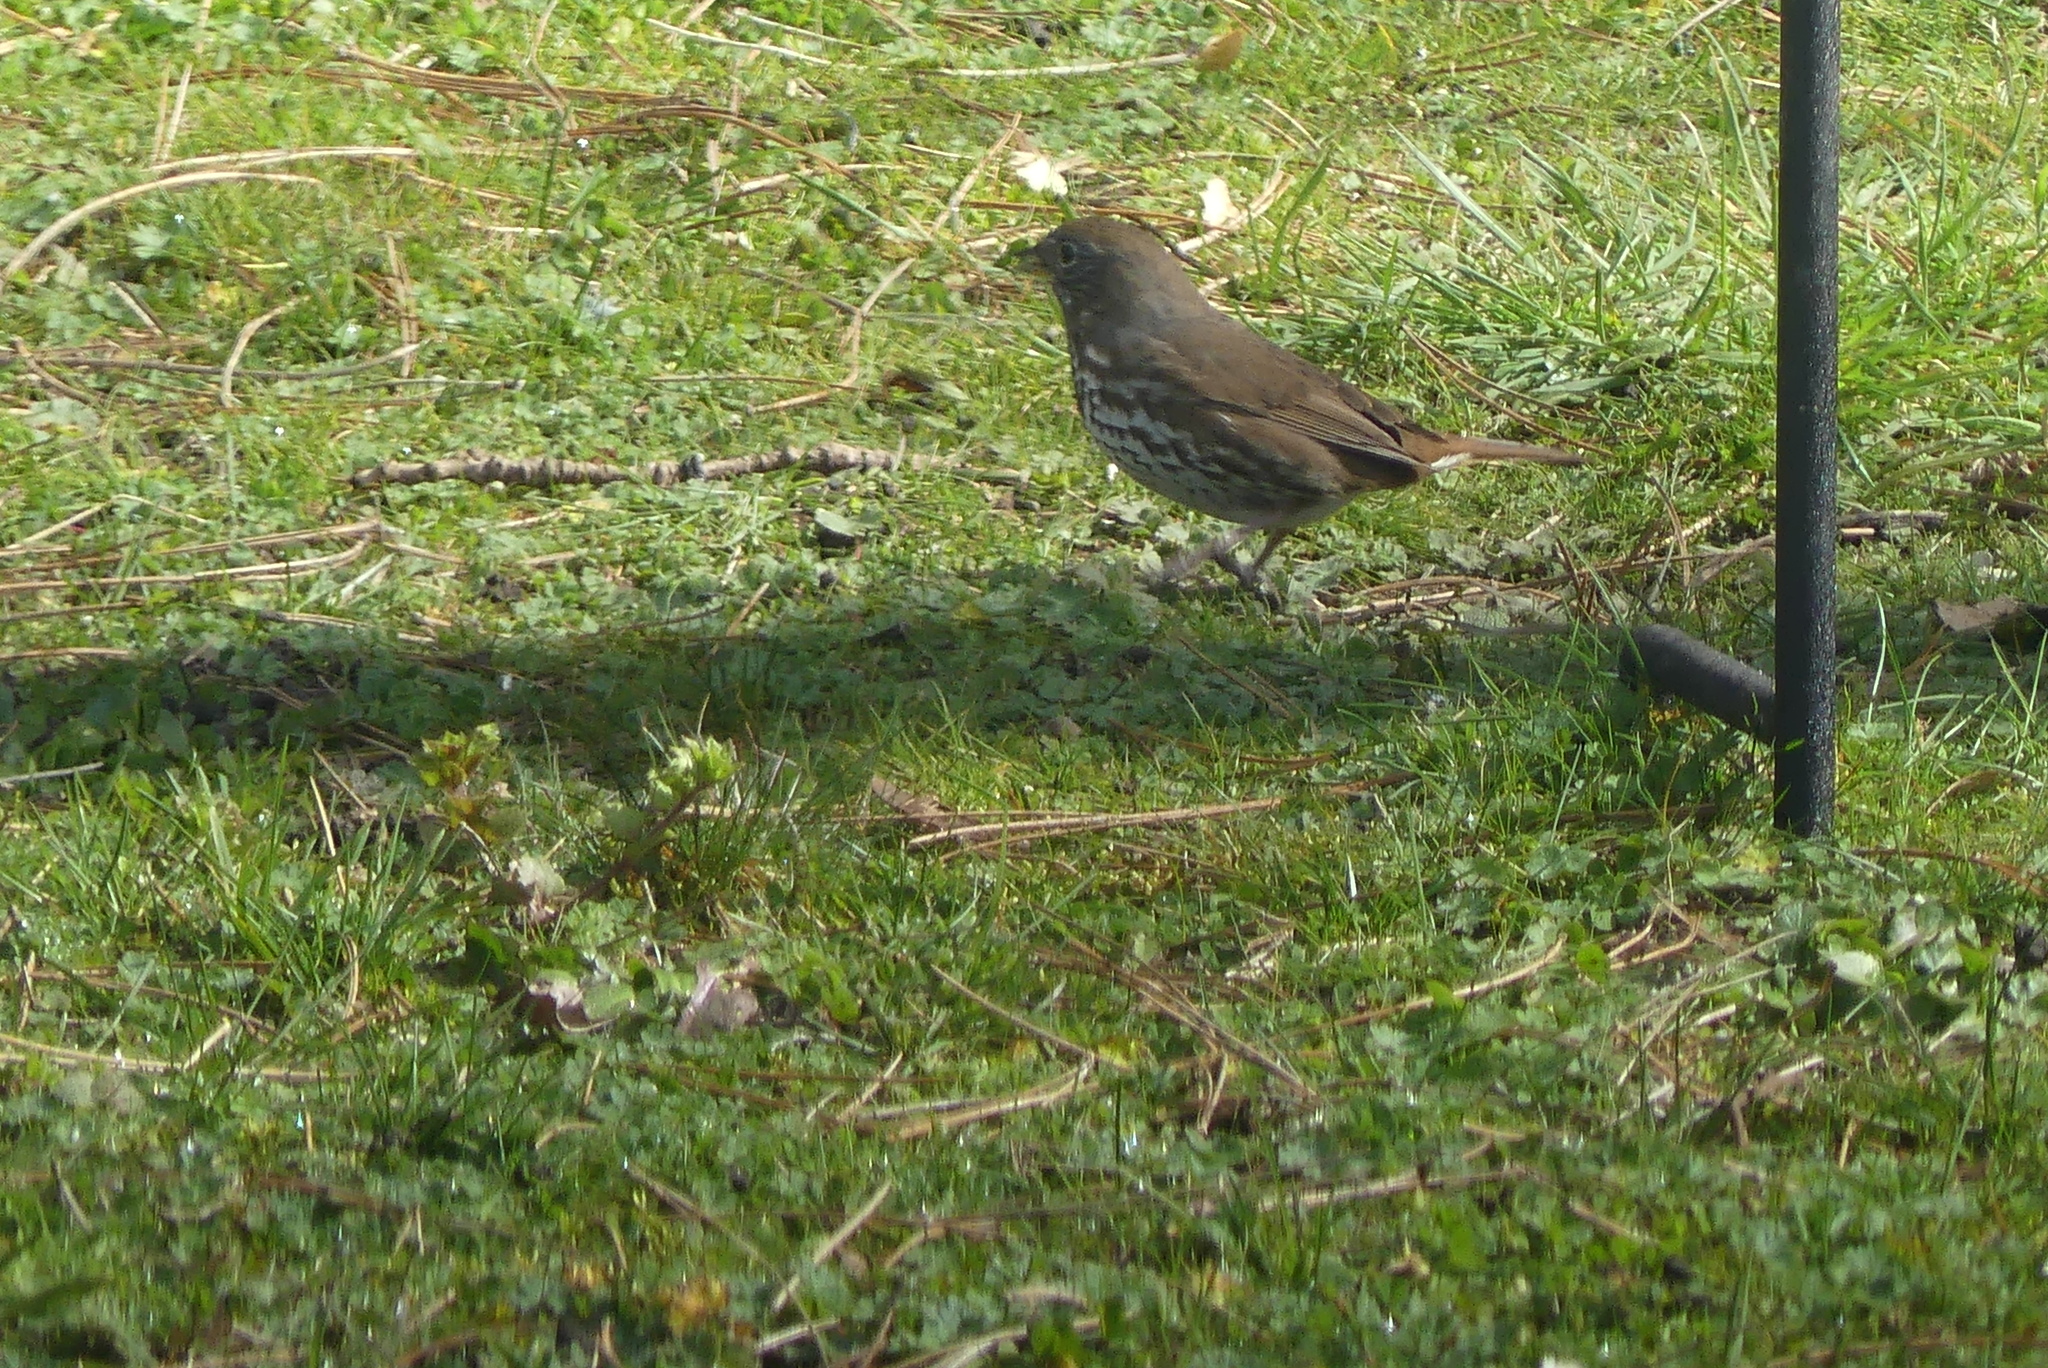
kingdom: Animalia
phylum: Chordata
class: Aves
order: Passeriformes
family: Passerellidae
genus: Passerella
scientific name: Passerella iliaca
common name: Fox sparrow
